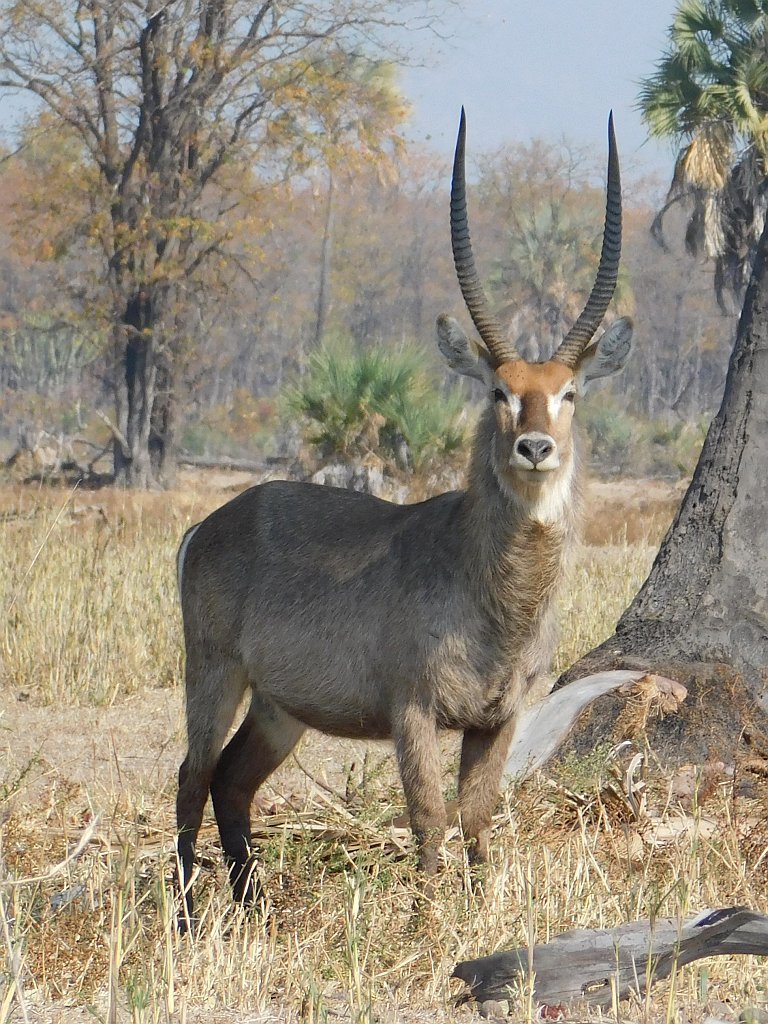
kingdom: Animalia
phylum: Chordata
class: Mammalia
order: Artiodactyla
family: Bovidae
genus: Kobus
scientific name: Kobus ellipsiprymnus
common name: Waterbuck
